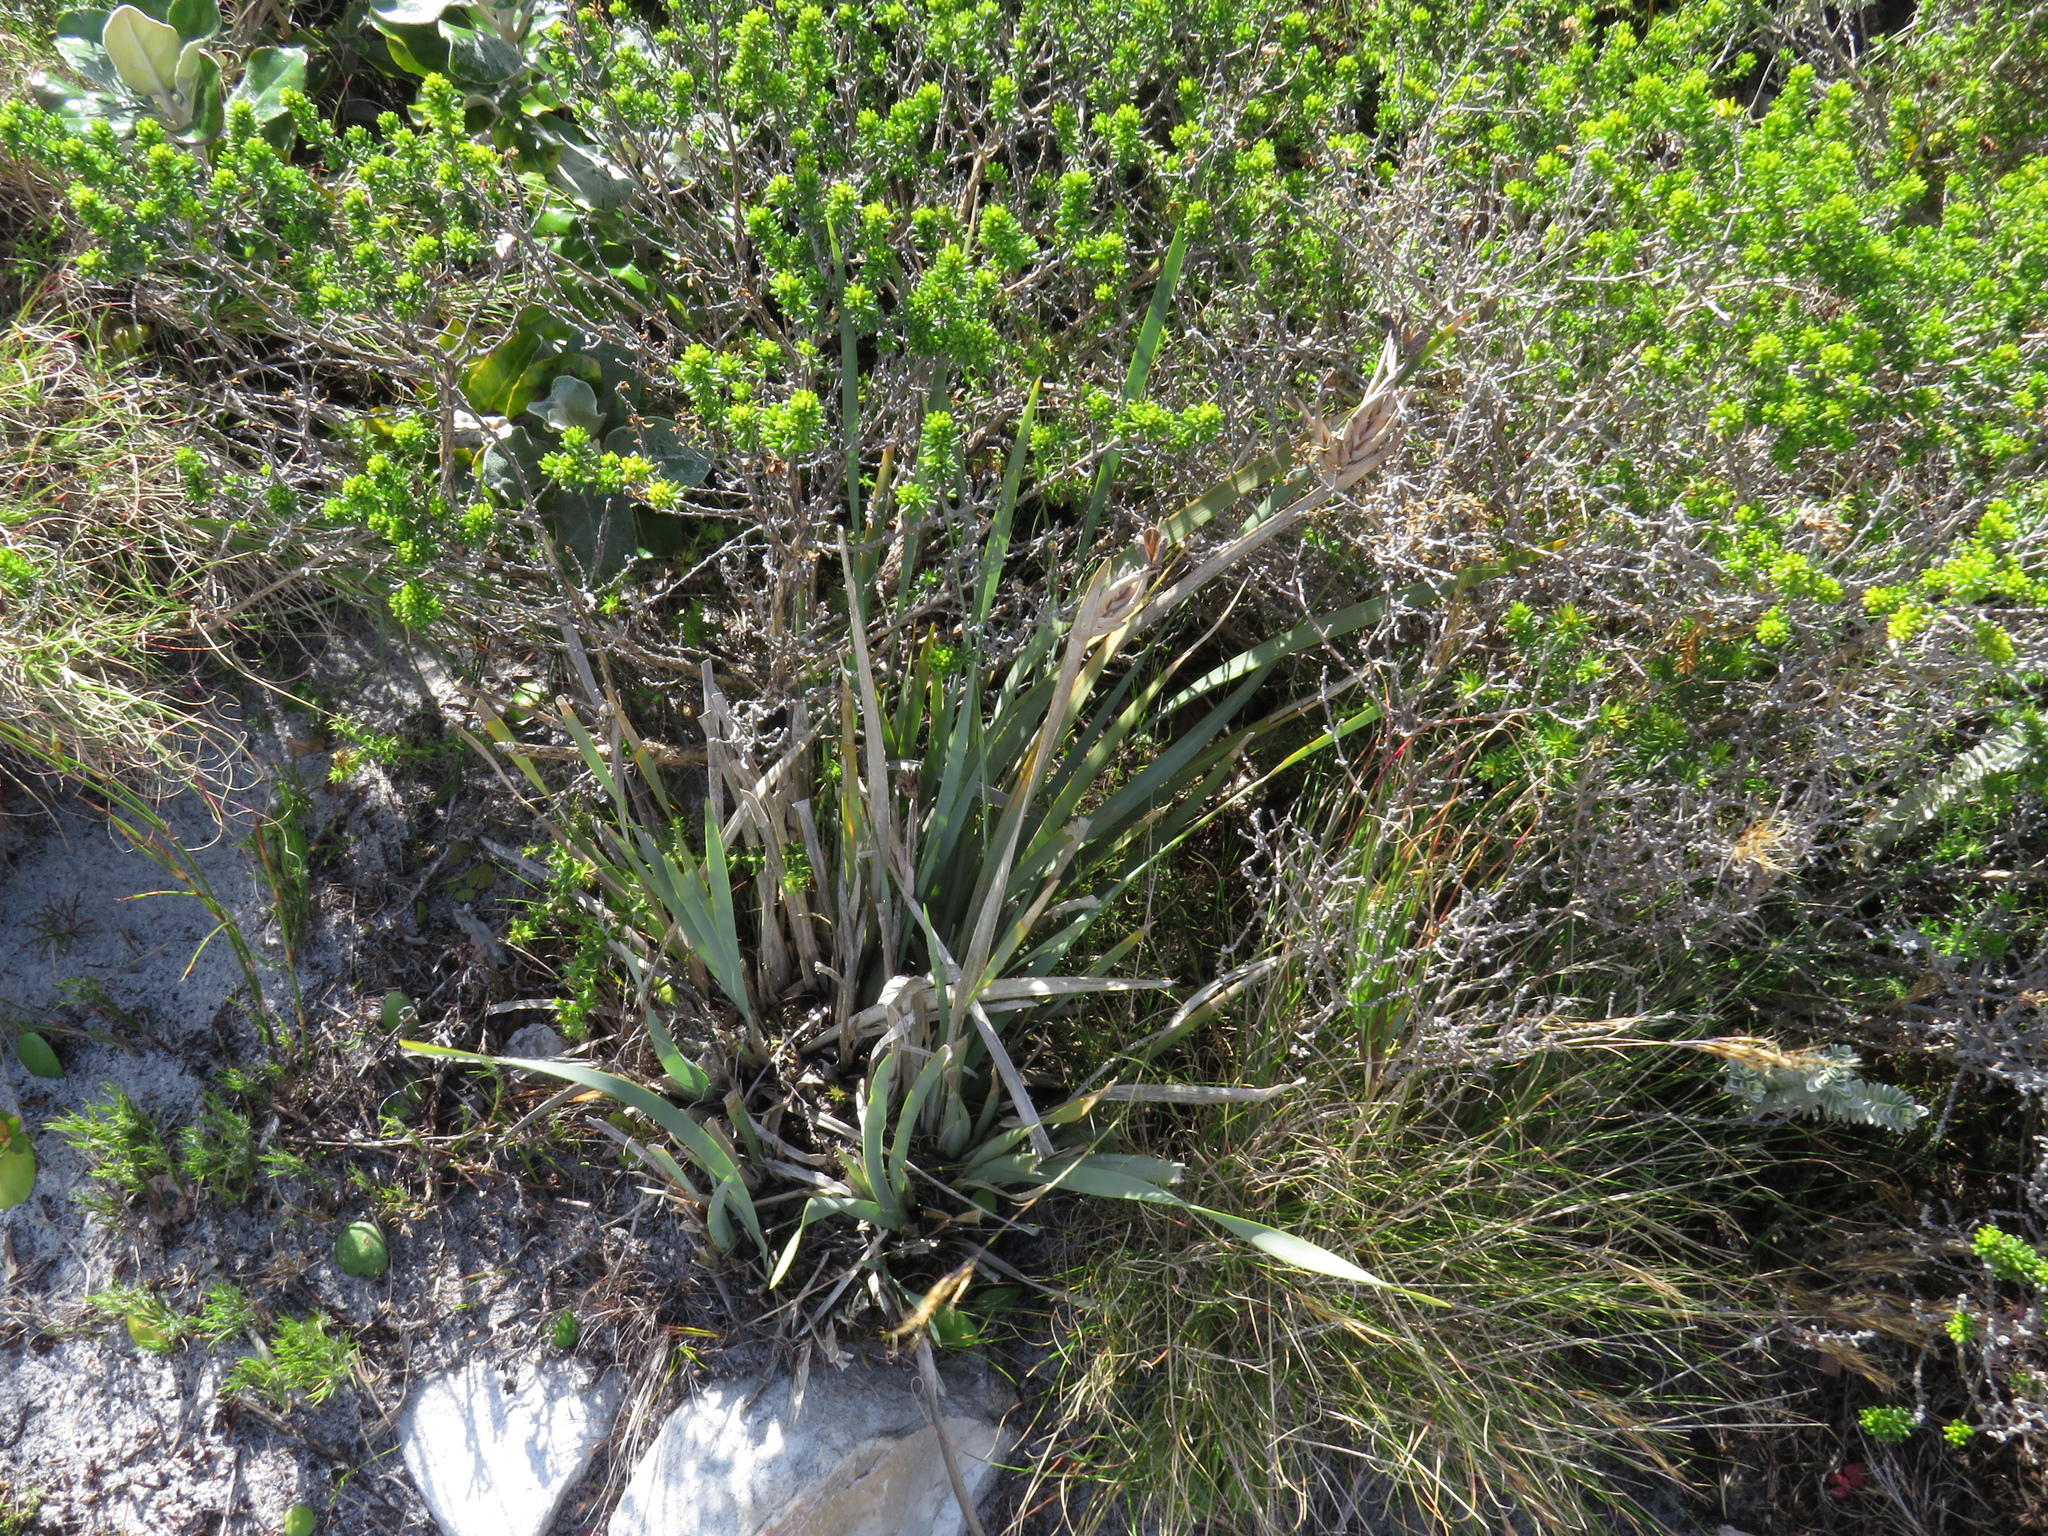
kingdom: Plantae
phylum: Tracheophyta
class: Liliopsida
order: Asparagales
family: Iridaceae
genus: Bobartia
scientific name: Bobartia gladiata
